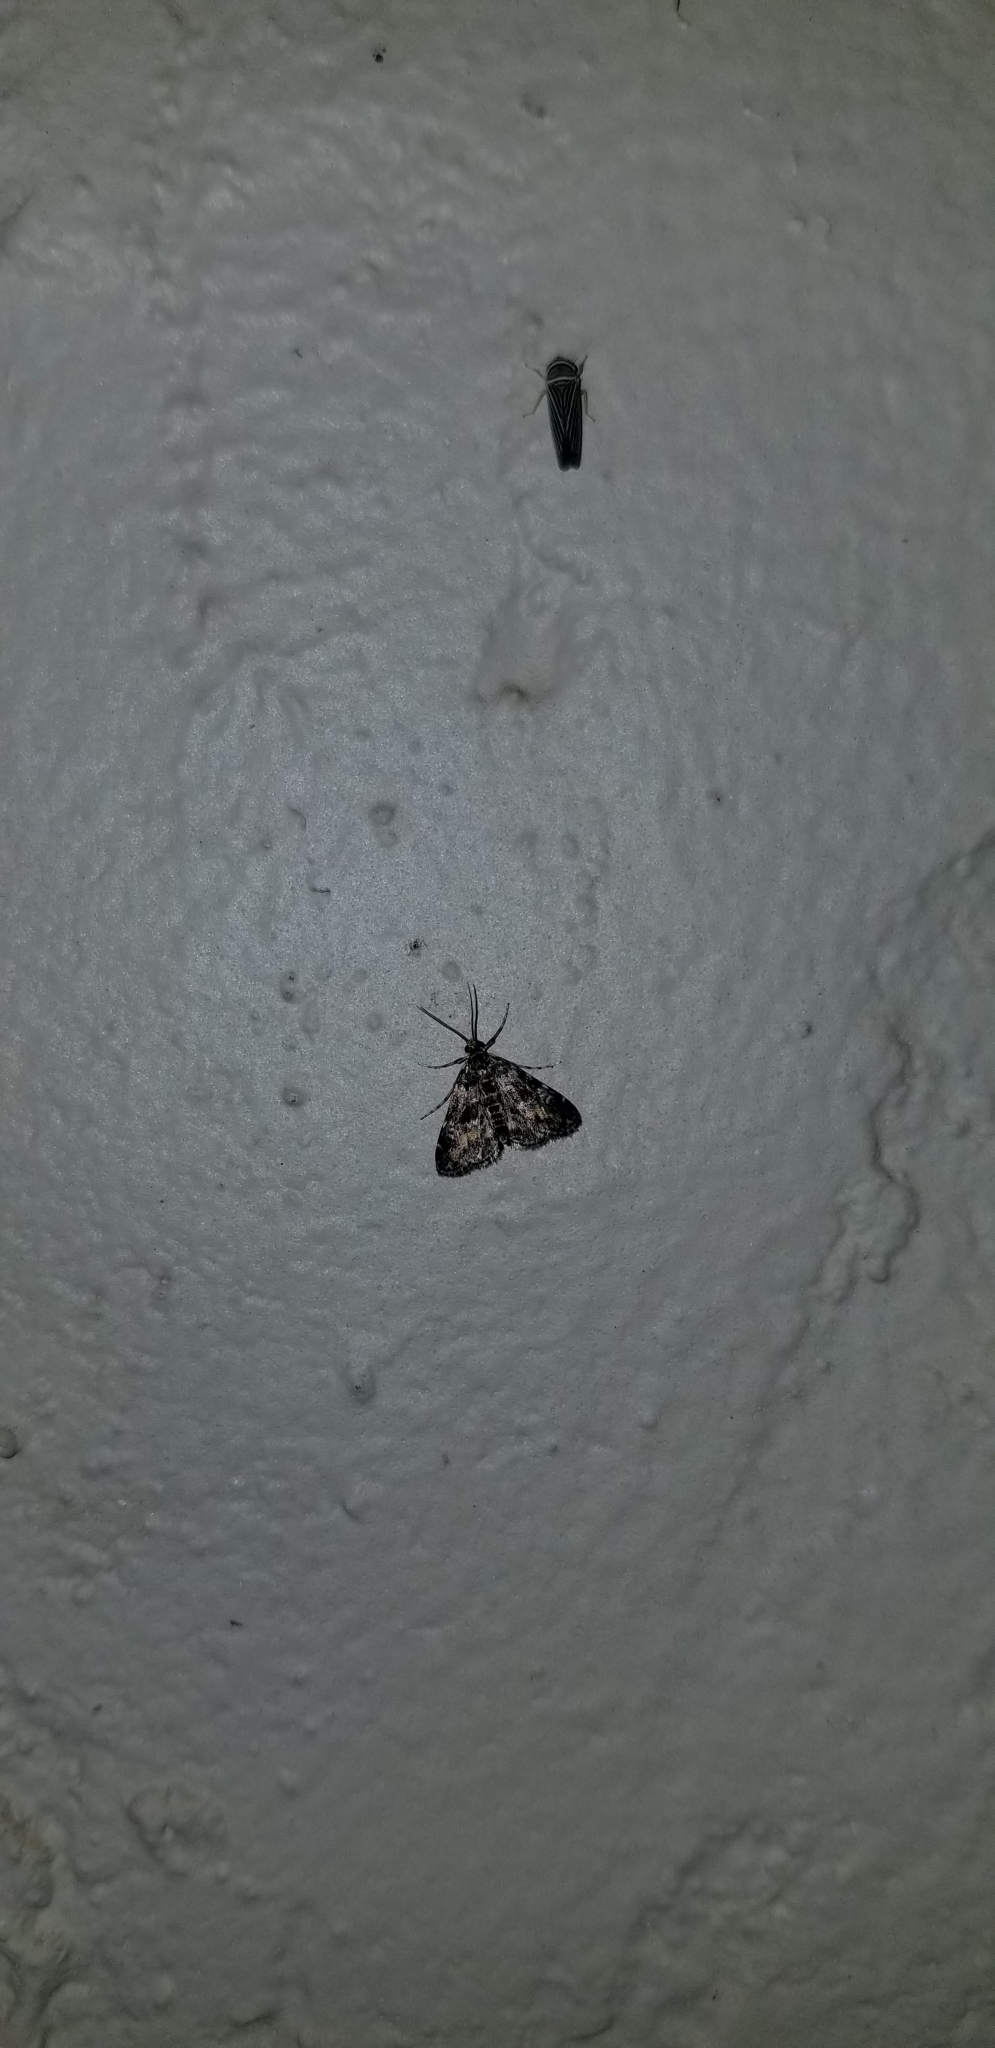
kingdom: Animalia
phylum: Arthropoda
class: Insecta
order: Lepidoptera
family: Crambidae
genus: Elophila
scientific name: Elophila obliteralis
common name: Waterlily leafcutter moth
